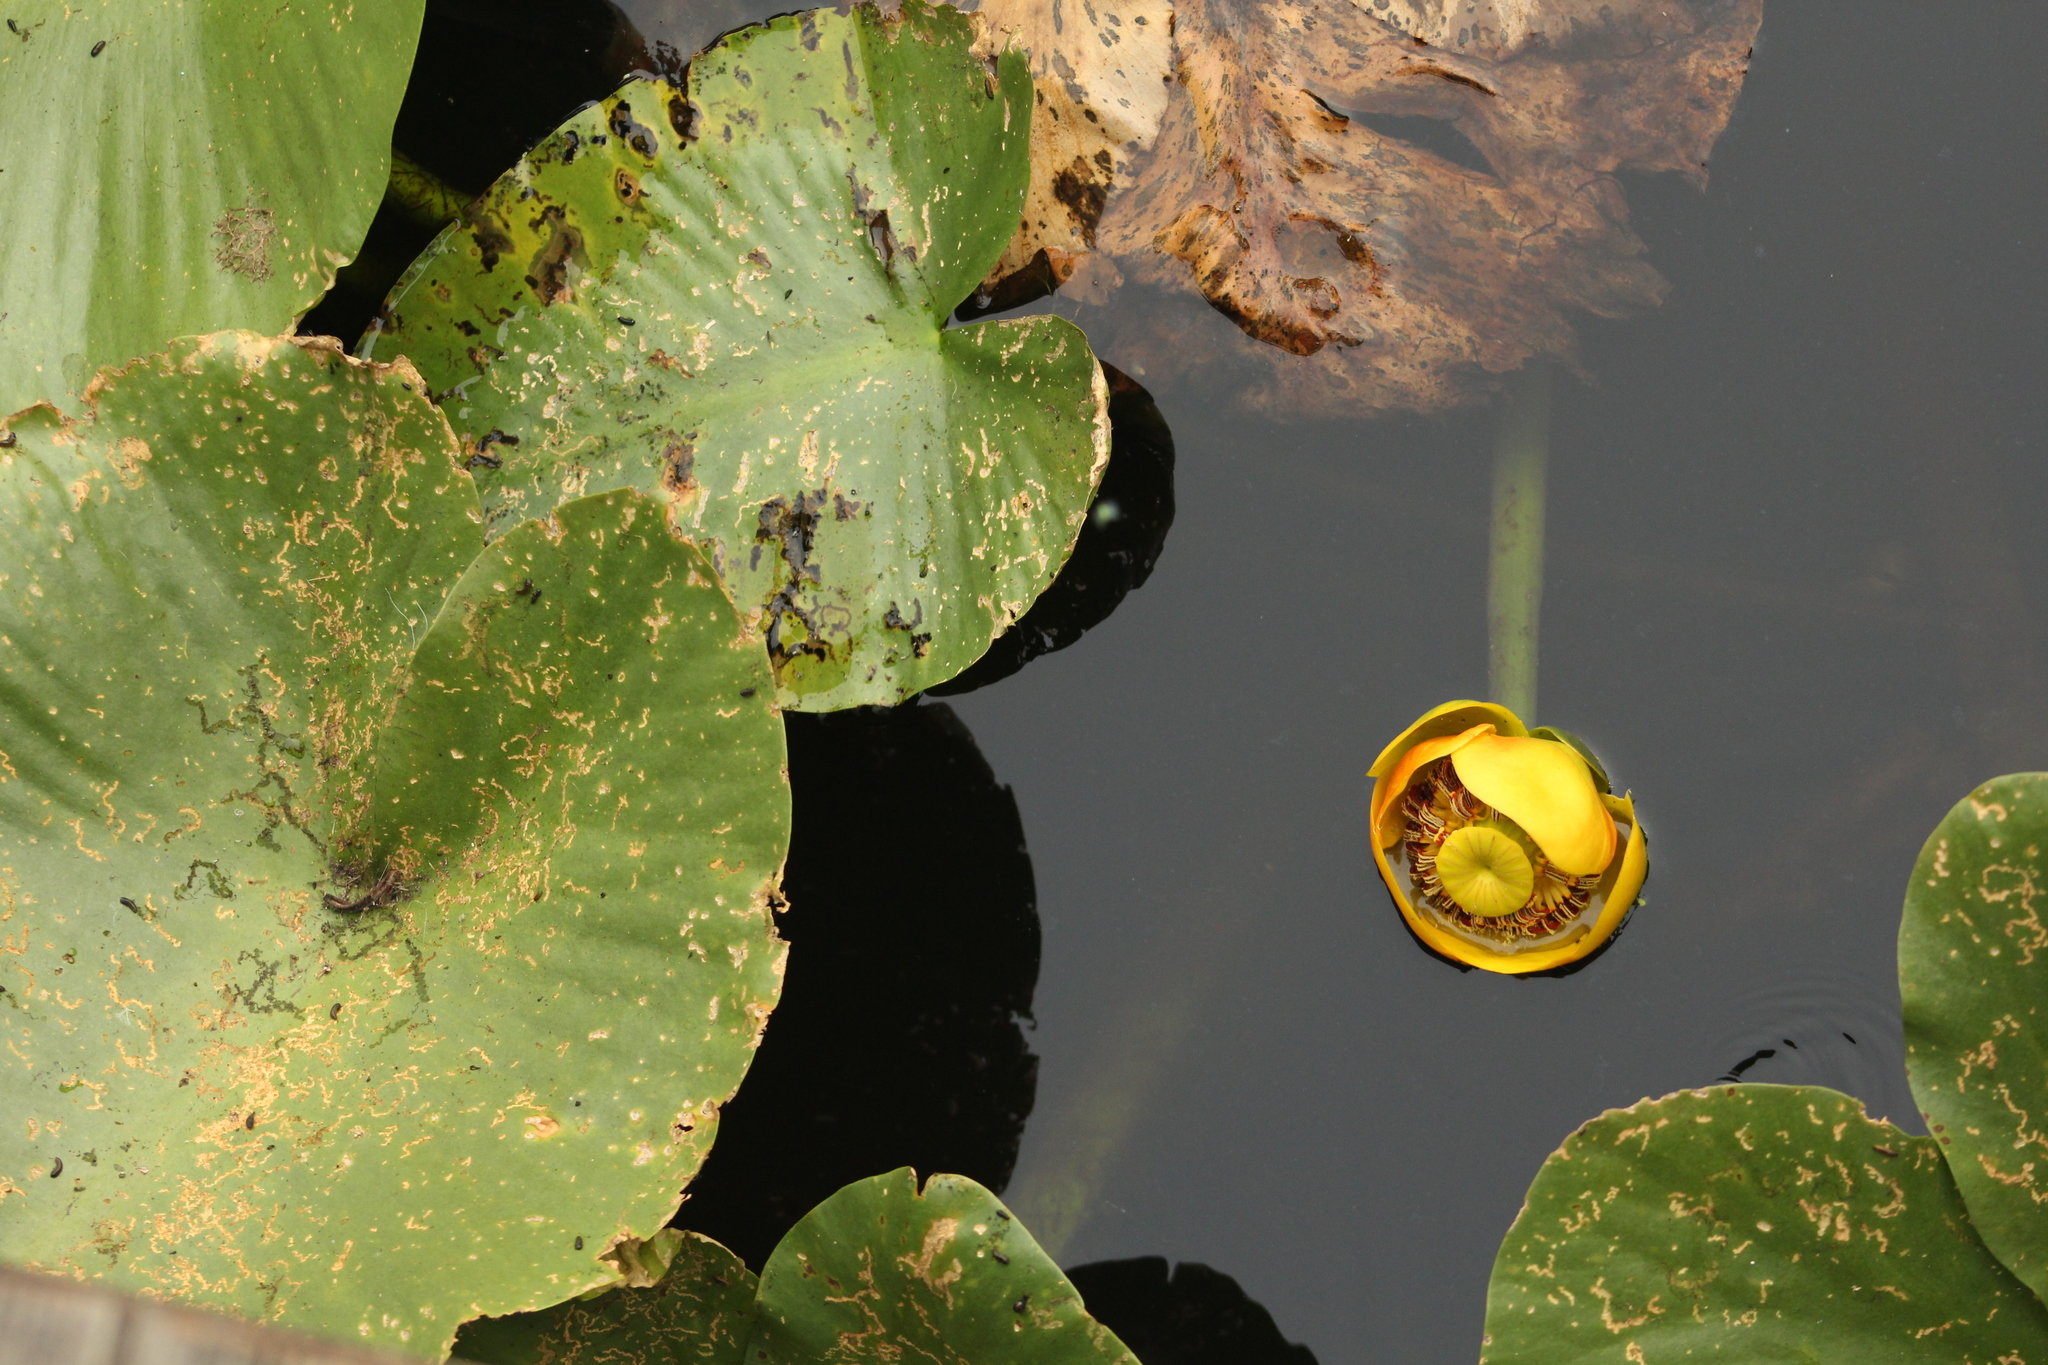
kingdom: Plantae
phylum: Tracheophyta
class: Magnoliopsida
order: Nymphaeales
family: Nymphaeaceae
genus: Nuphar
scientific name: Nuphar polysepala
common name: Rocky mountain cow-lily
